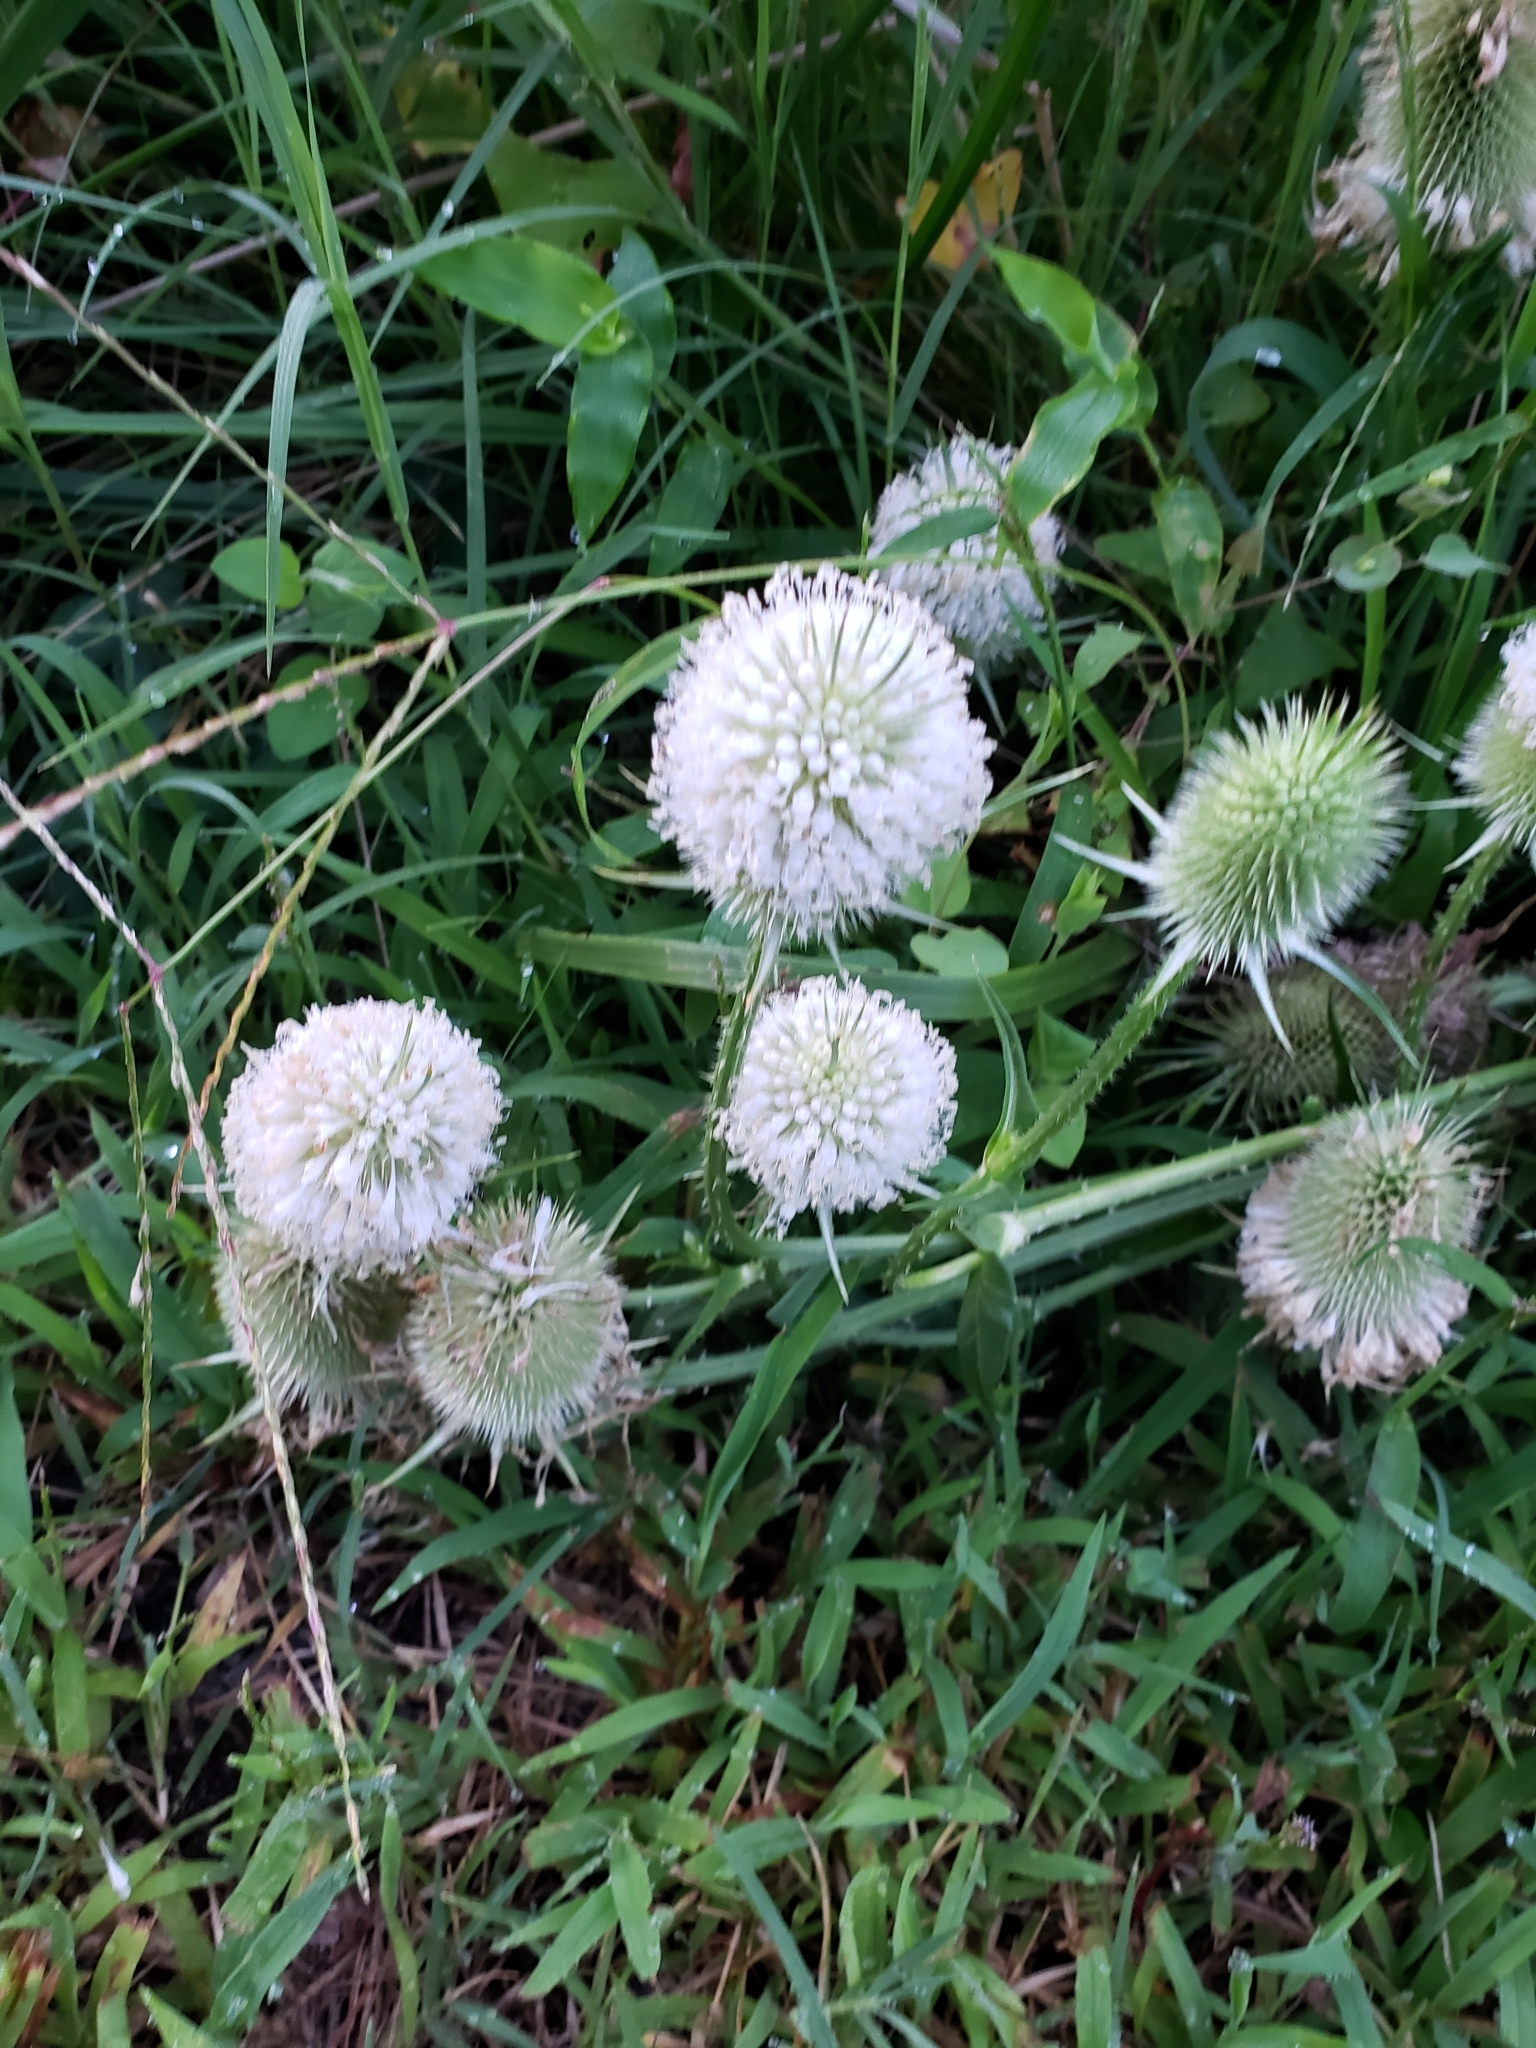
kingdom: Plantae
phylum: Tracheophyta
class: Magnoliopsida
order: Dipsacales
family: Caprifoliaceae
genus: Dipsacus
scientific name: Dipsacus laciniatus
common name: Cut-leaved teasel
